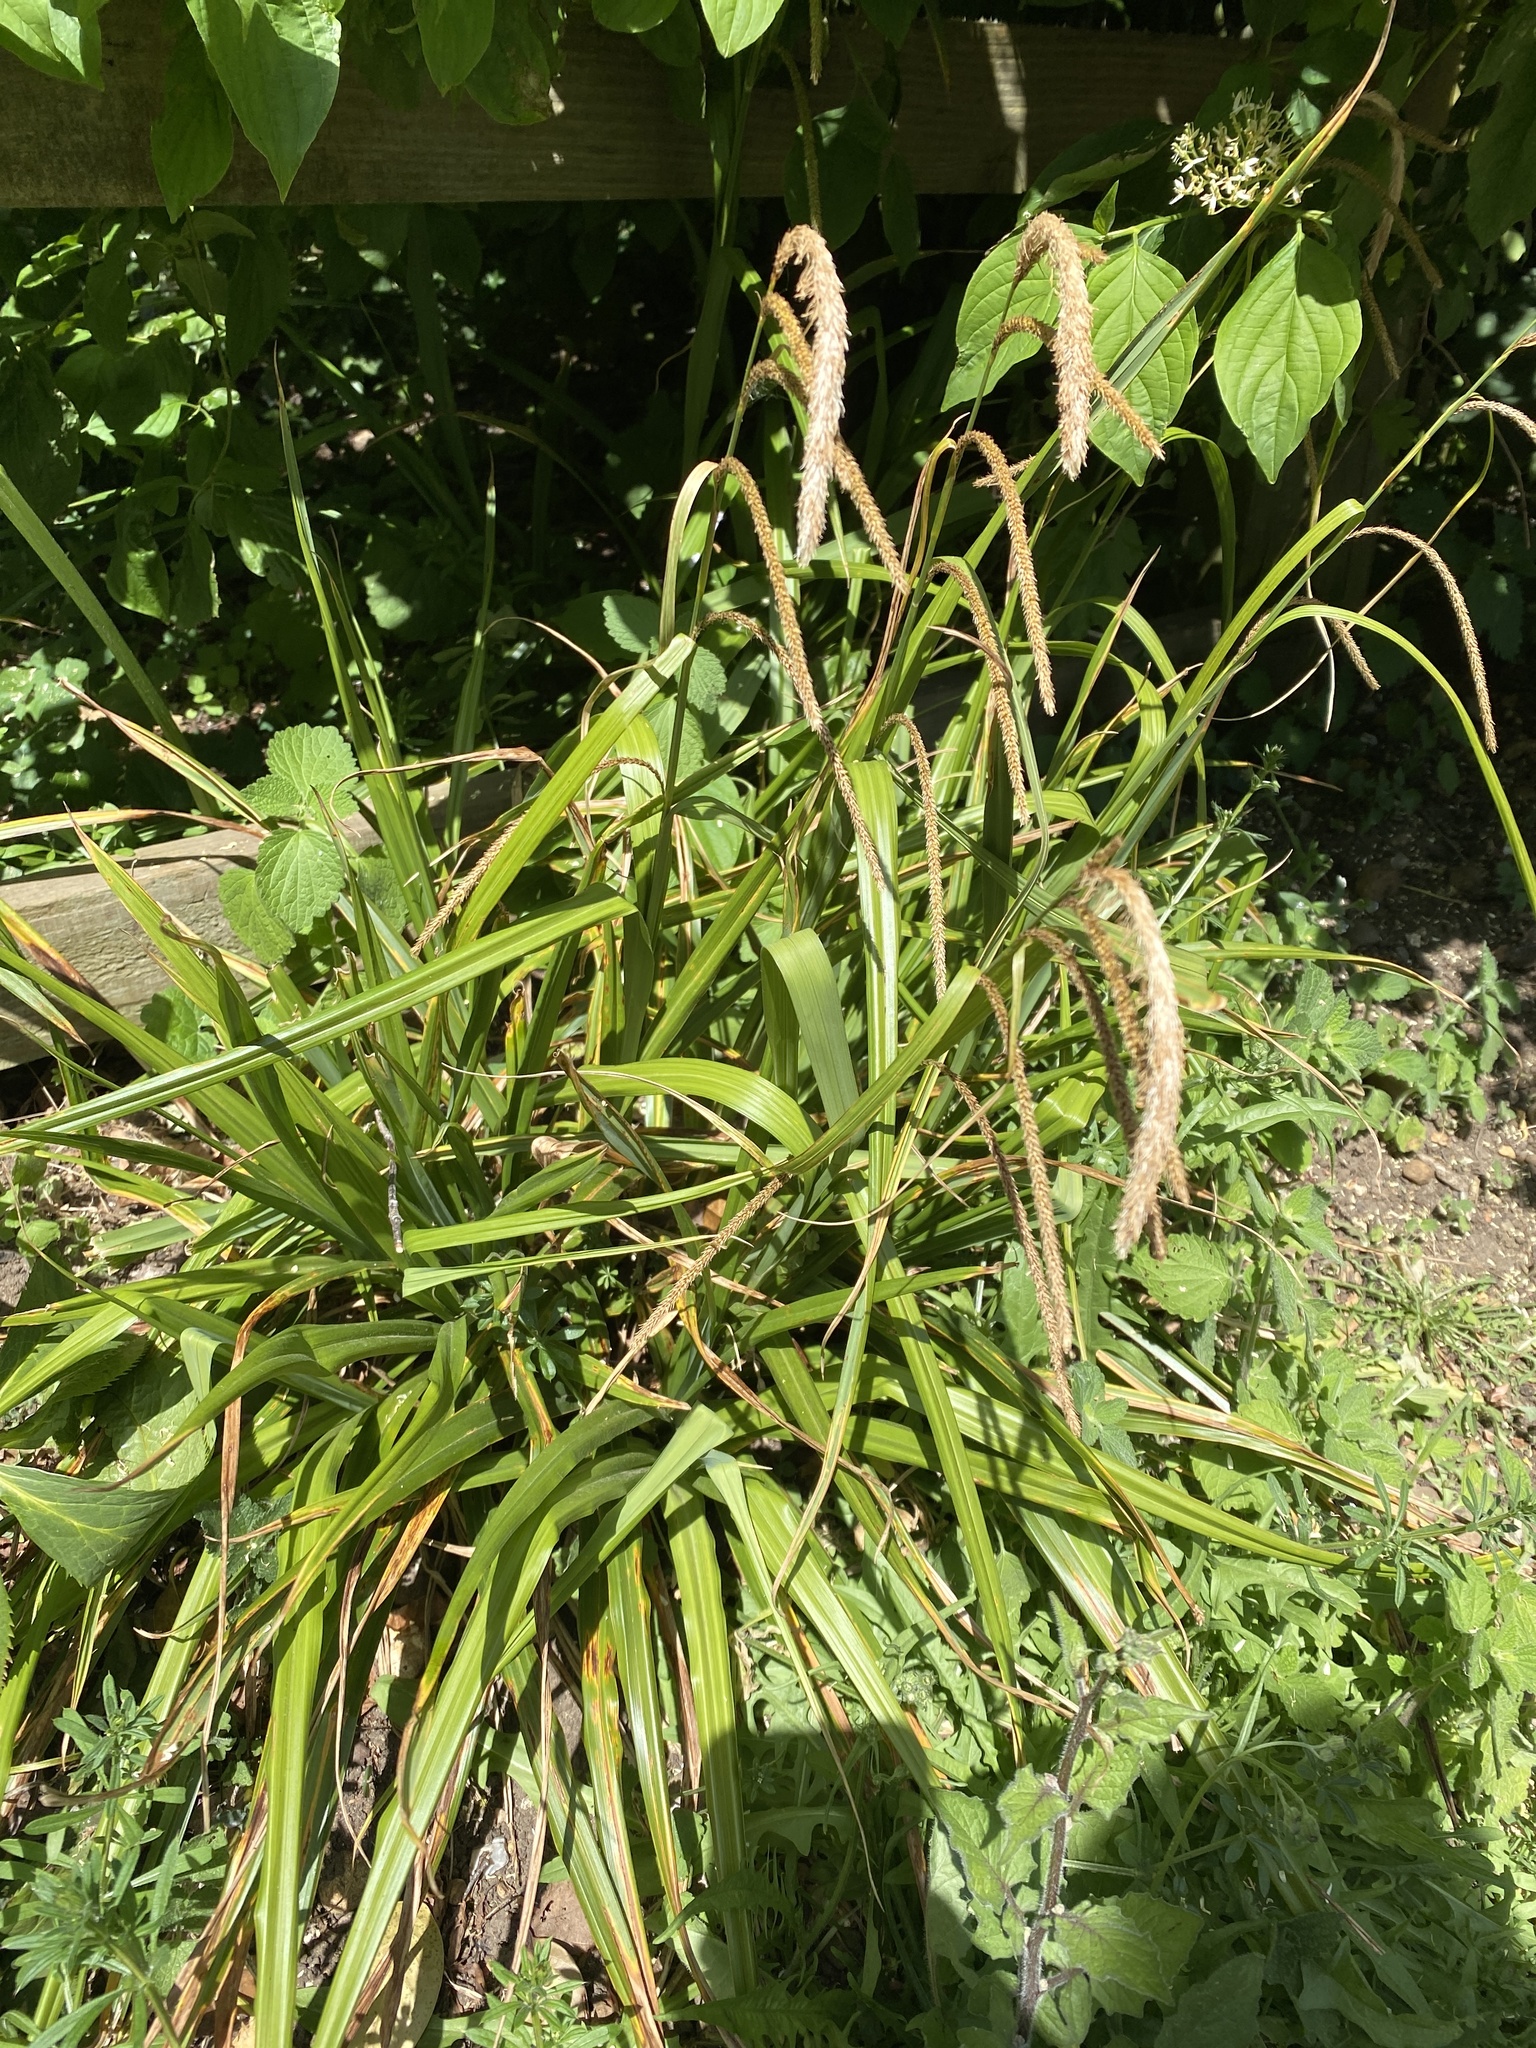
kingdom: Plantae
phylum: Tracheophyta
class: Liliopsida
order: Poales
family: Cyperaceae
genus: Carex
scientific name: Carex pendula
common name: Pendulous sedge
